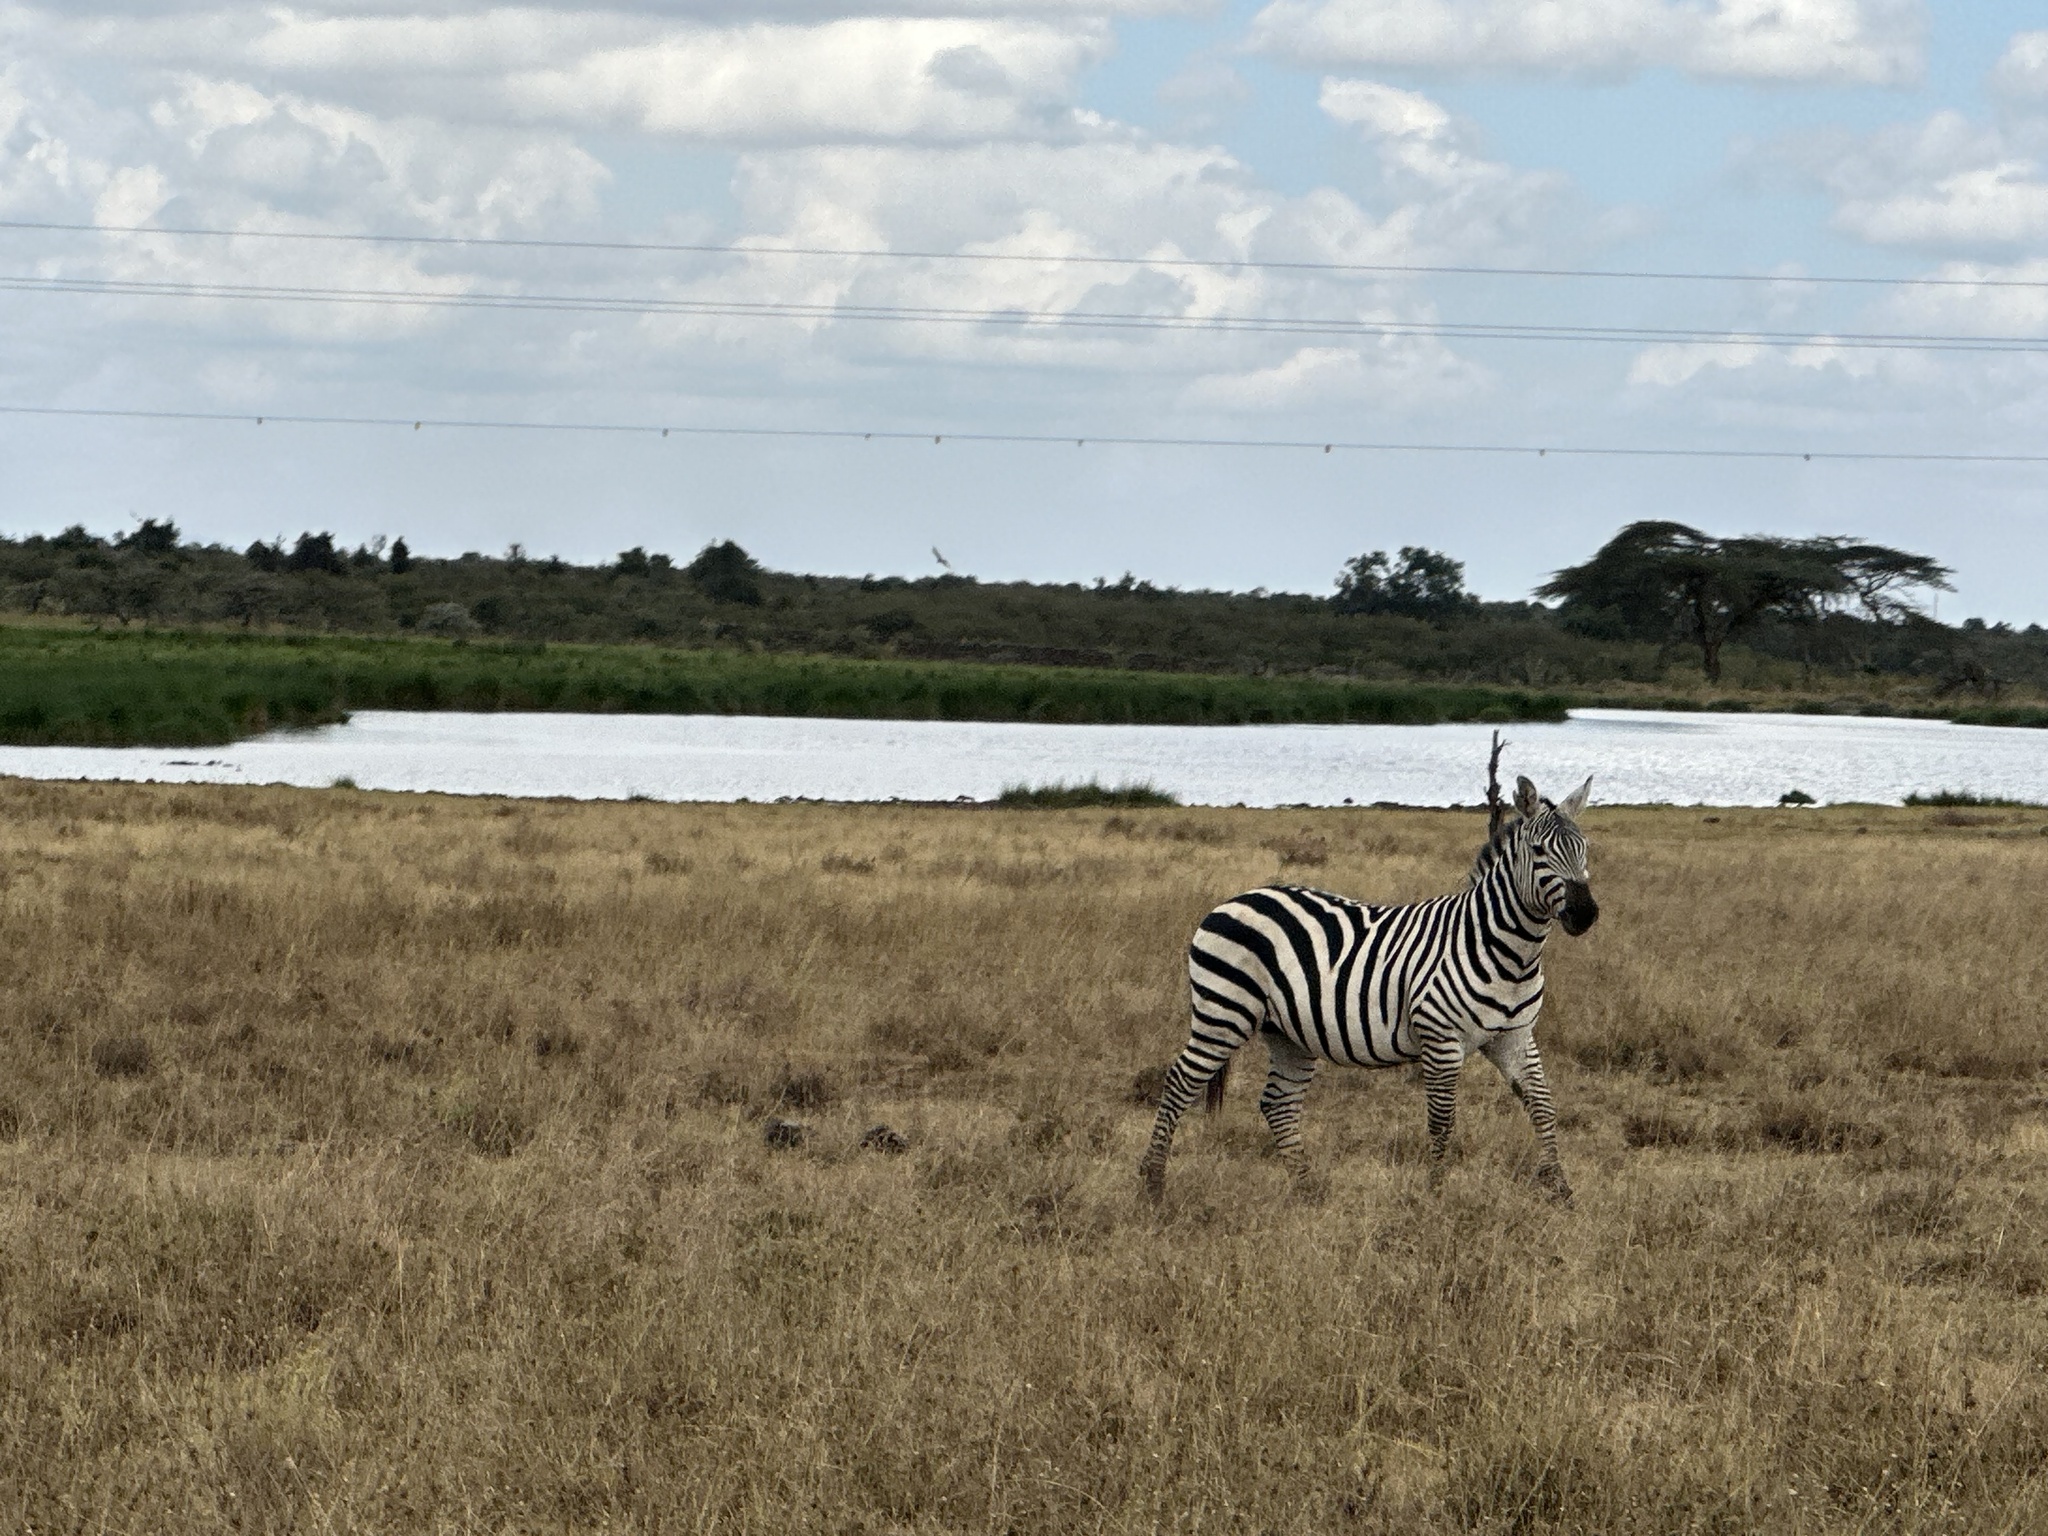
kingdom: Animalia
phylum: Chordata
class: Mammalia
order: Perissodactyla
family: Equidae
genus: Equus
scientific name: Equus quagga
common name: Plains zebra
